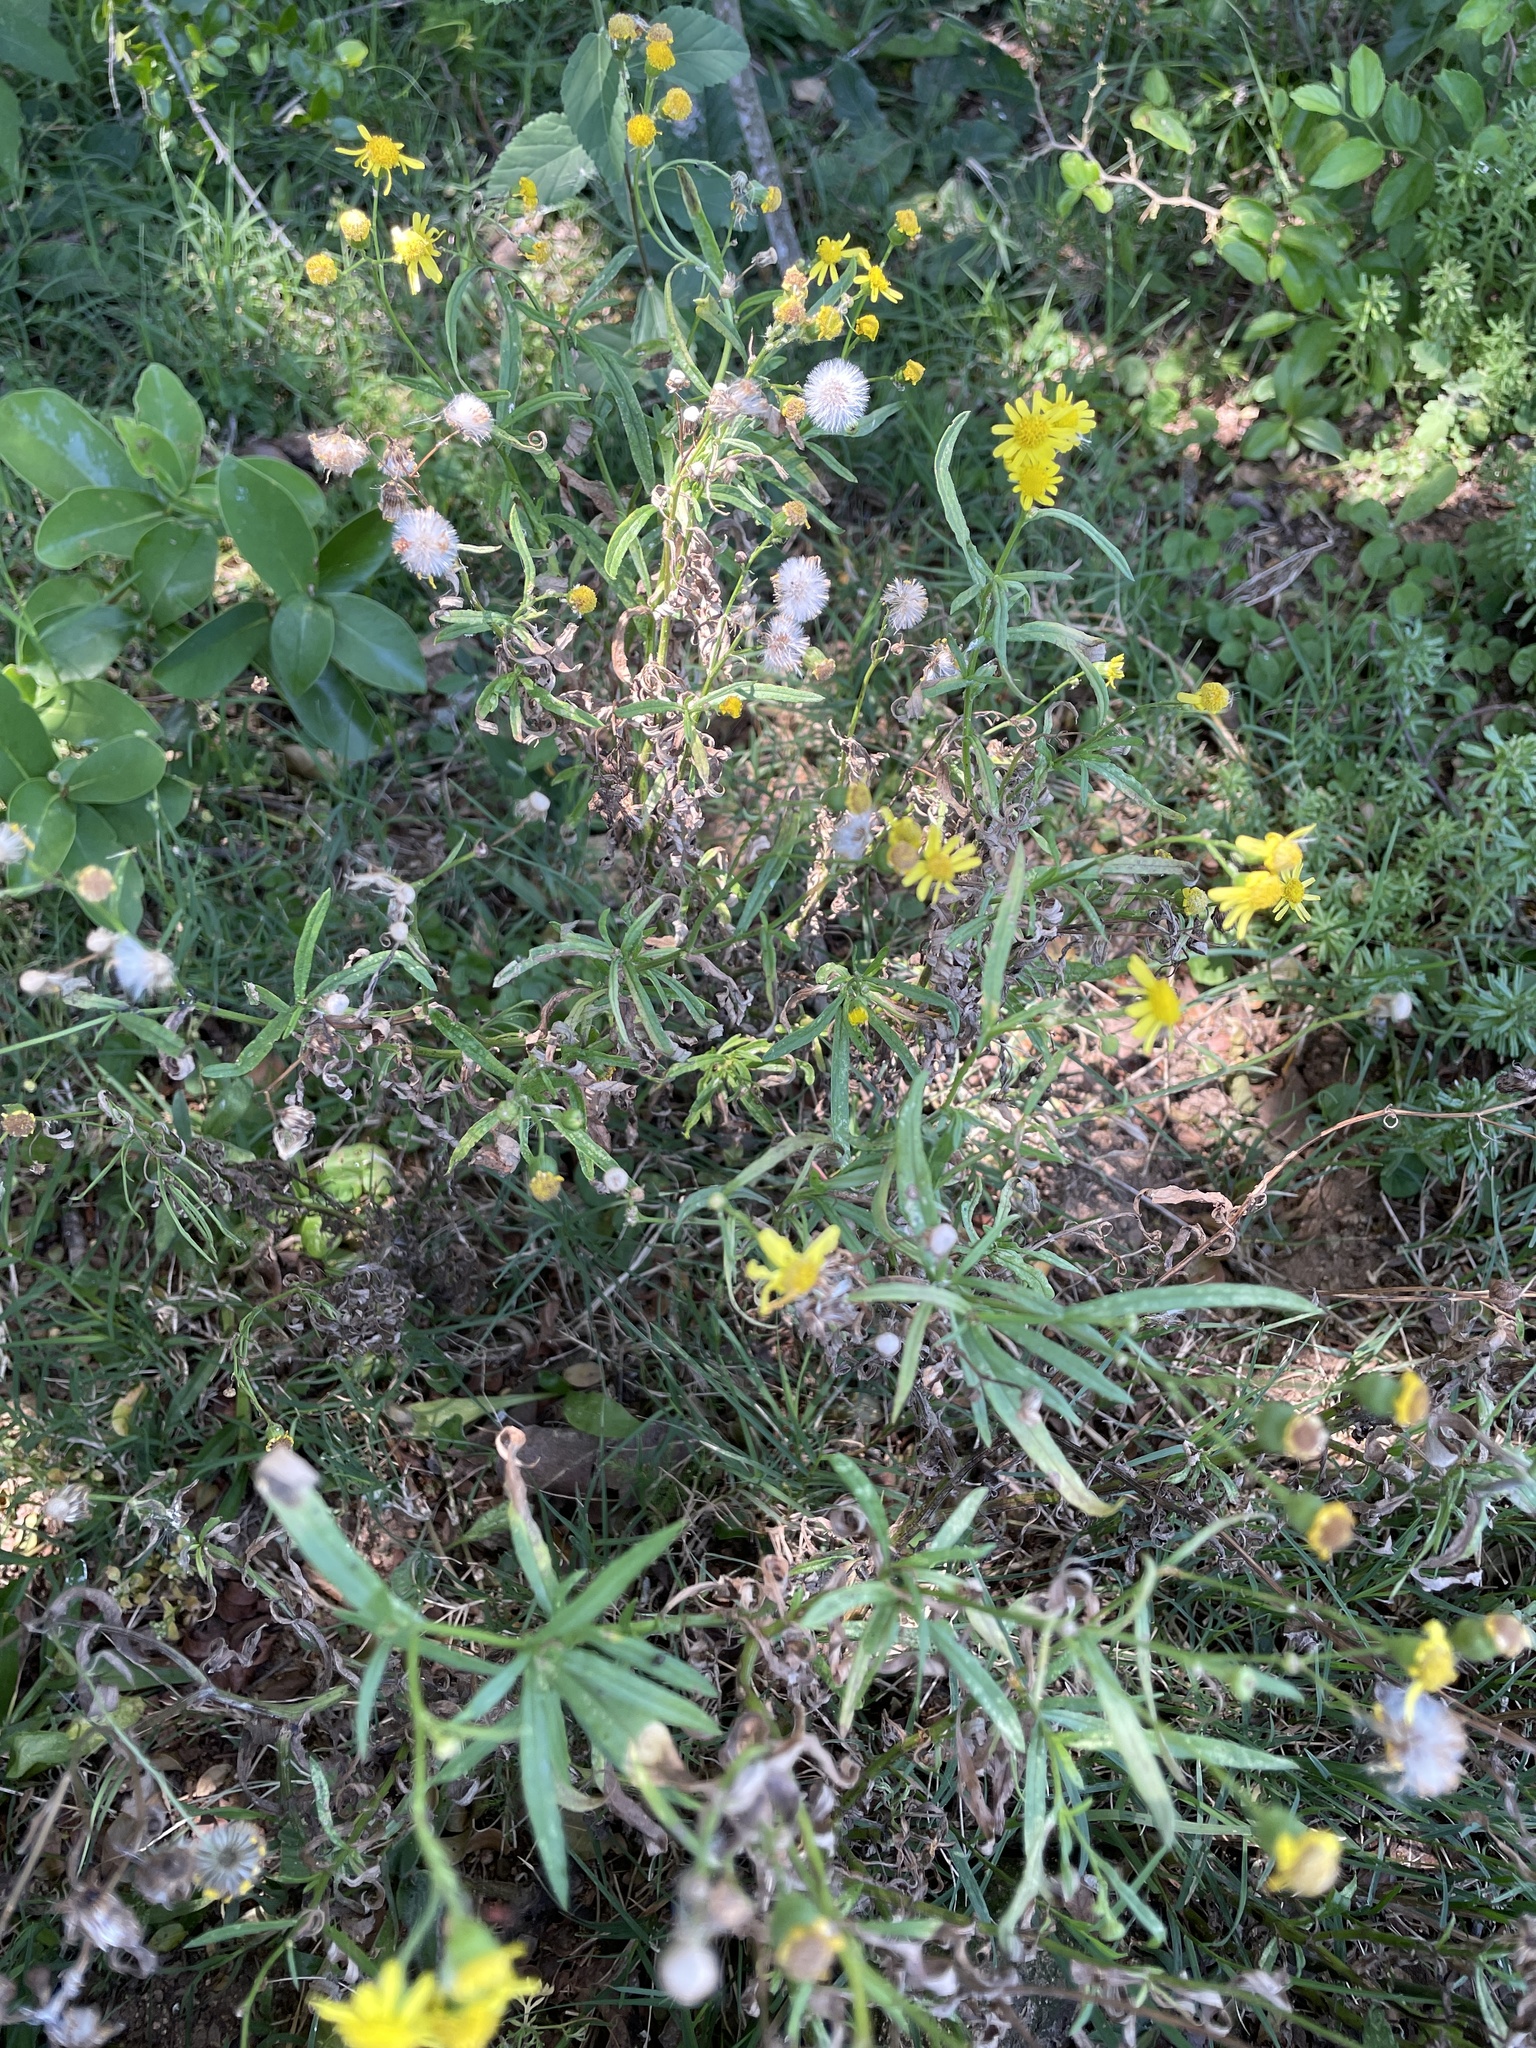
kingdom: Plantae
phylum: Tracheophyta
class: Magnoliopsida
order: Asterales
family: Asteraceae
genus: Senecio
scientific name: Senecio madagascariensis
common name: Madagascar ragwort
